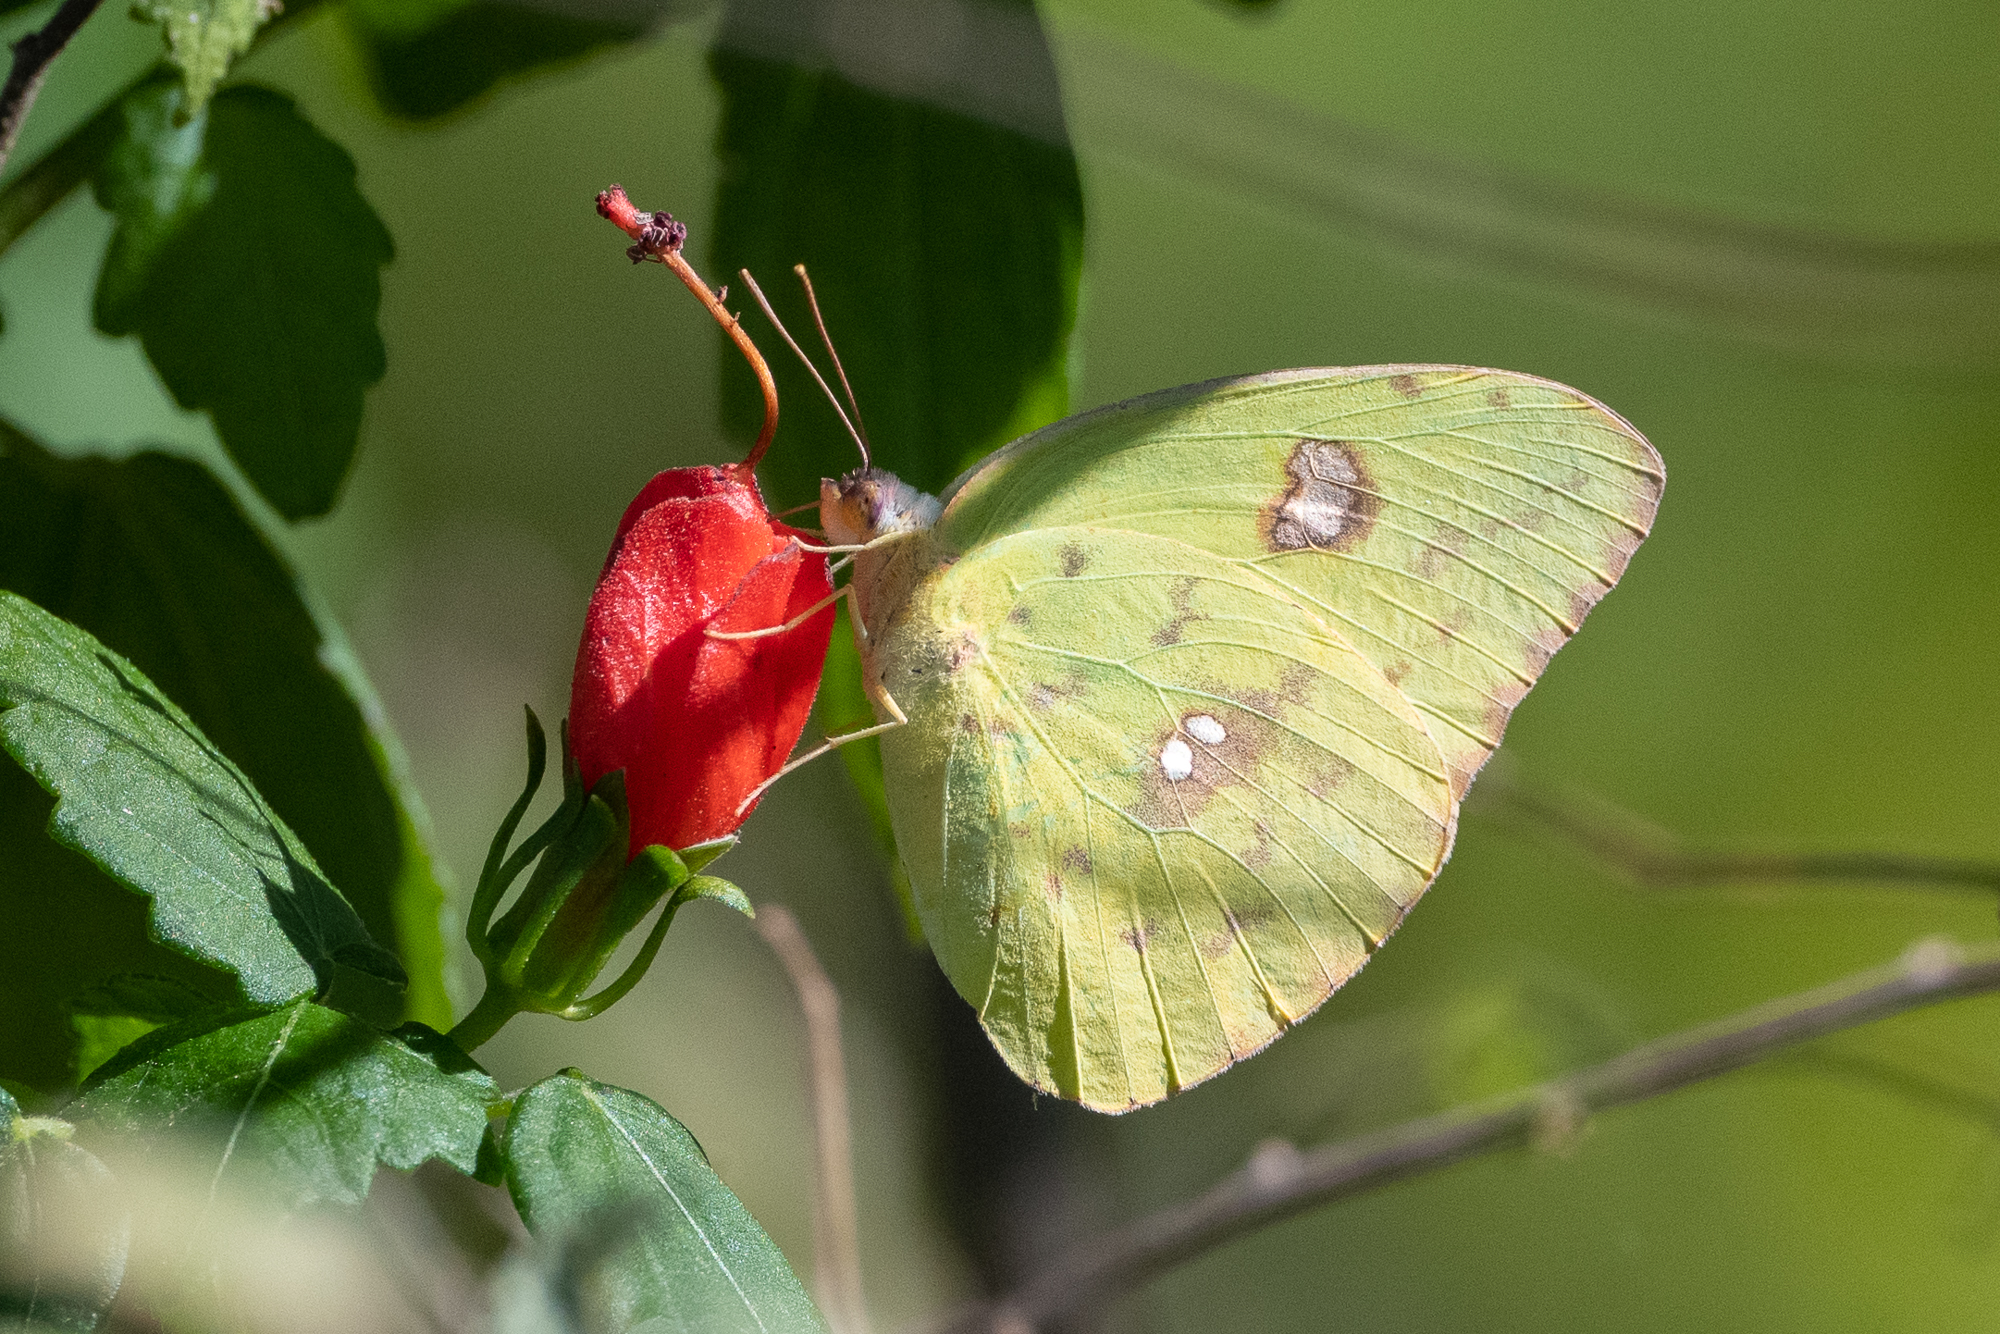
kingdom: Animalia
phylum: Arthropoda
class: Insecta
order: Lepidoptera
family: Pieridae
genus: Phoebis
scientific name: Phoebis sennae
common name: Cloudless sulphur
